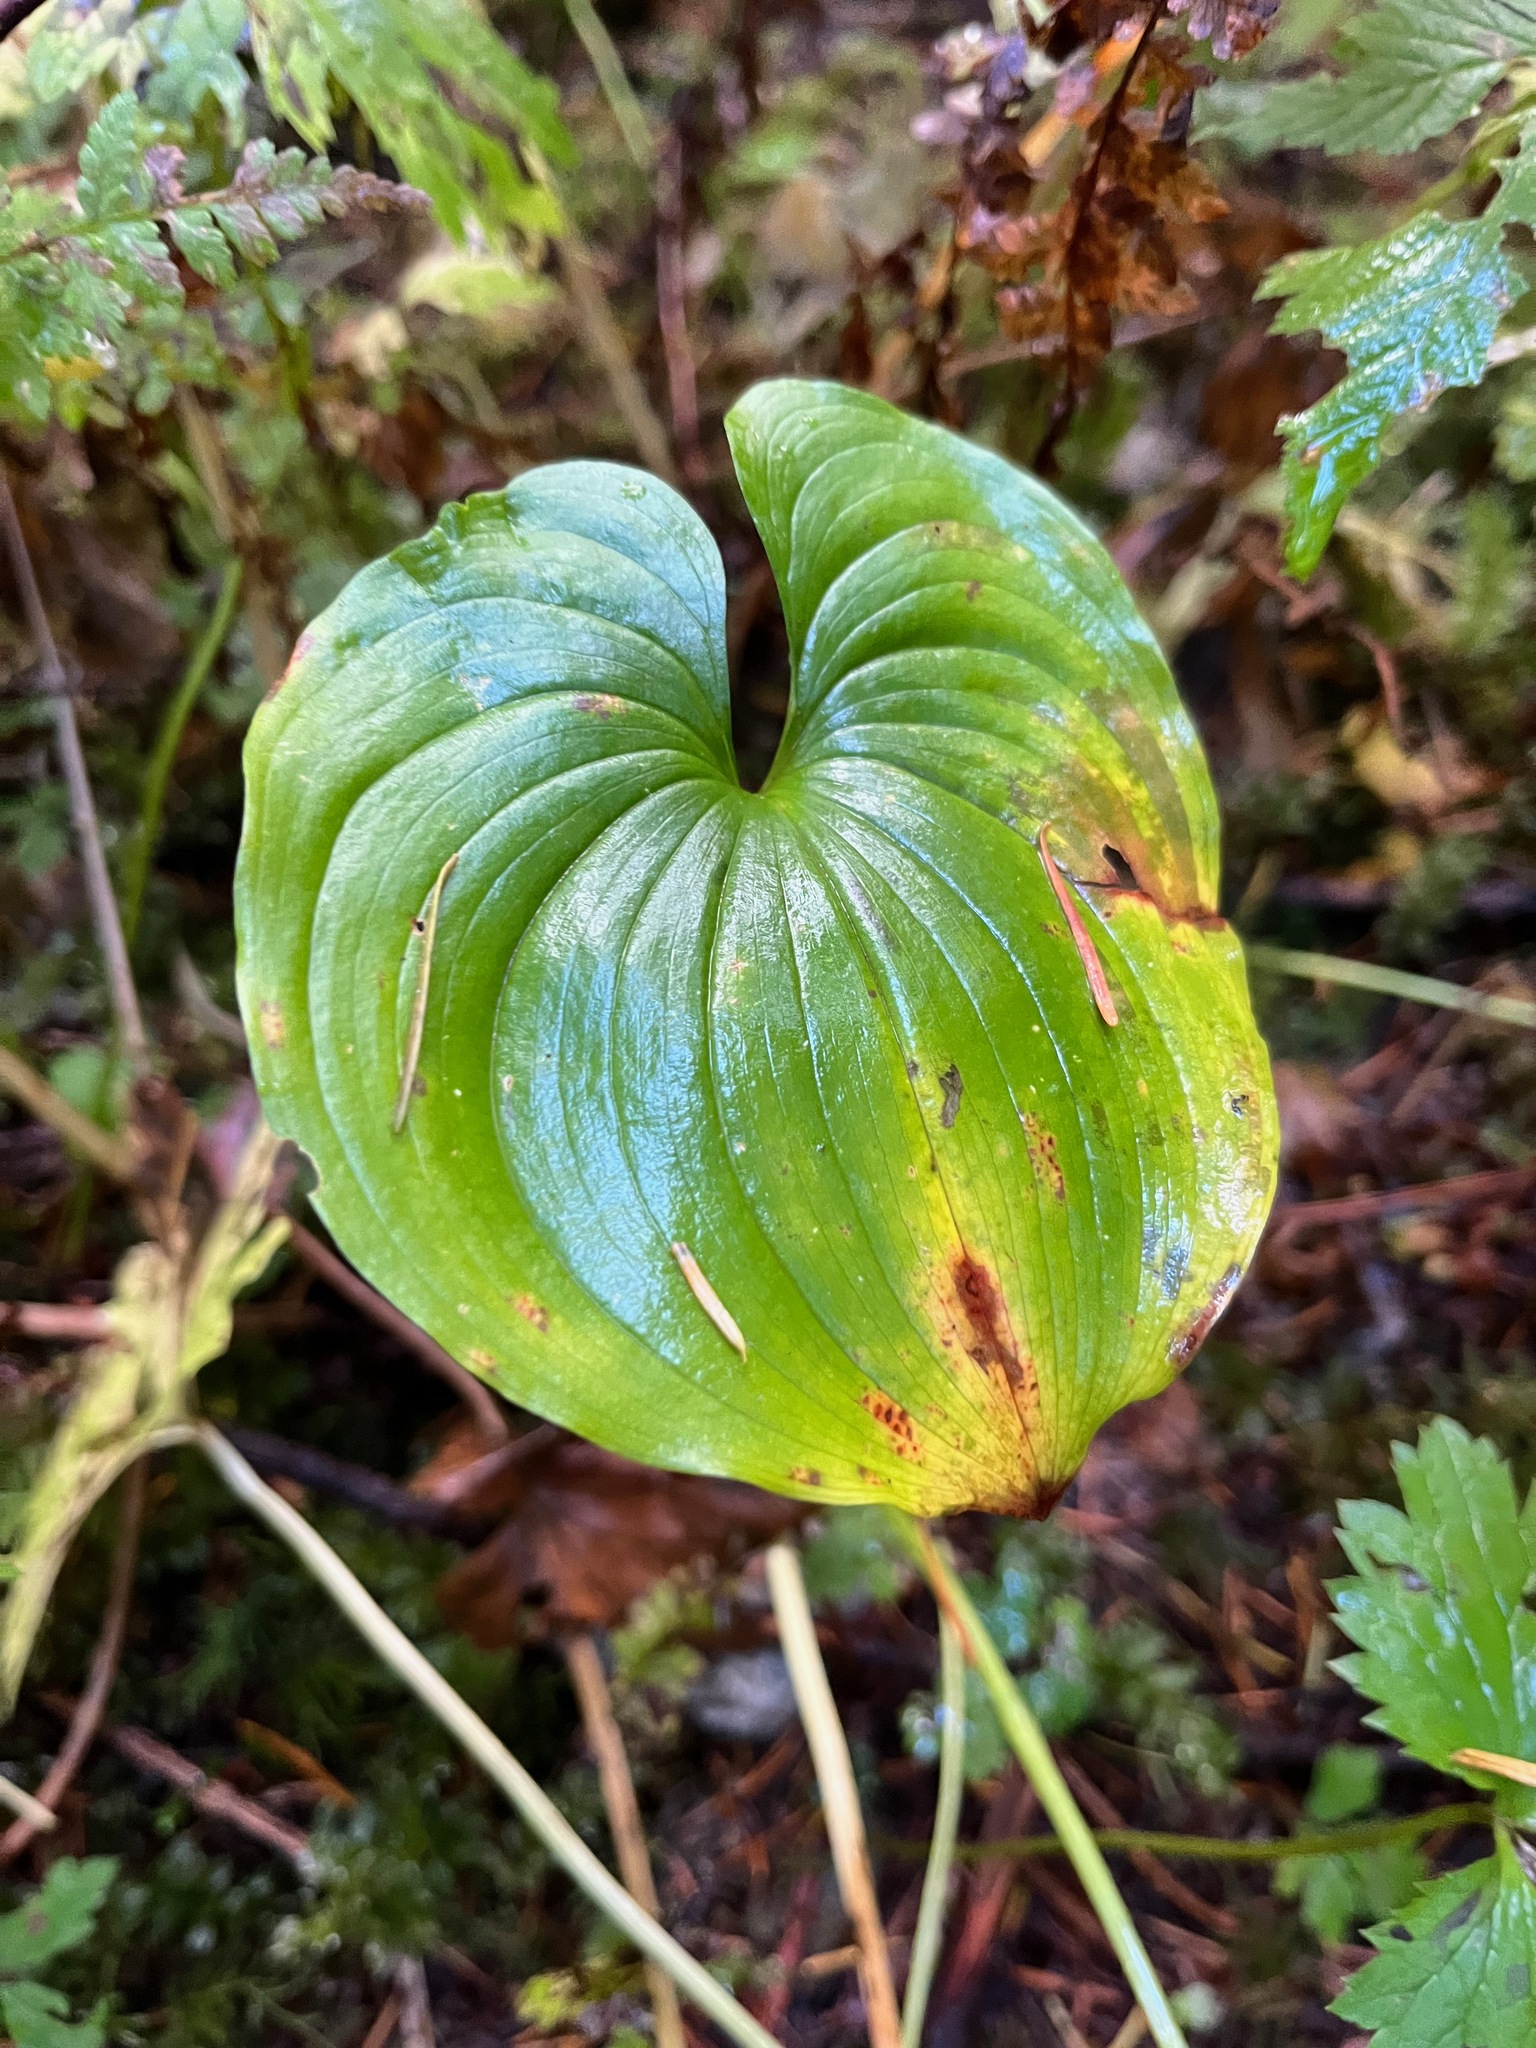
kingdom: Plantae
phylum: Tracheophyta
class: Liliopsida
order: Asparagales
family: Asparagaceae
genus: Maianthemum
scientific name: Maianthemum dilatatum
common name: False lily-of-the-valley
